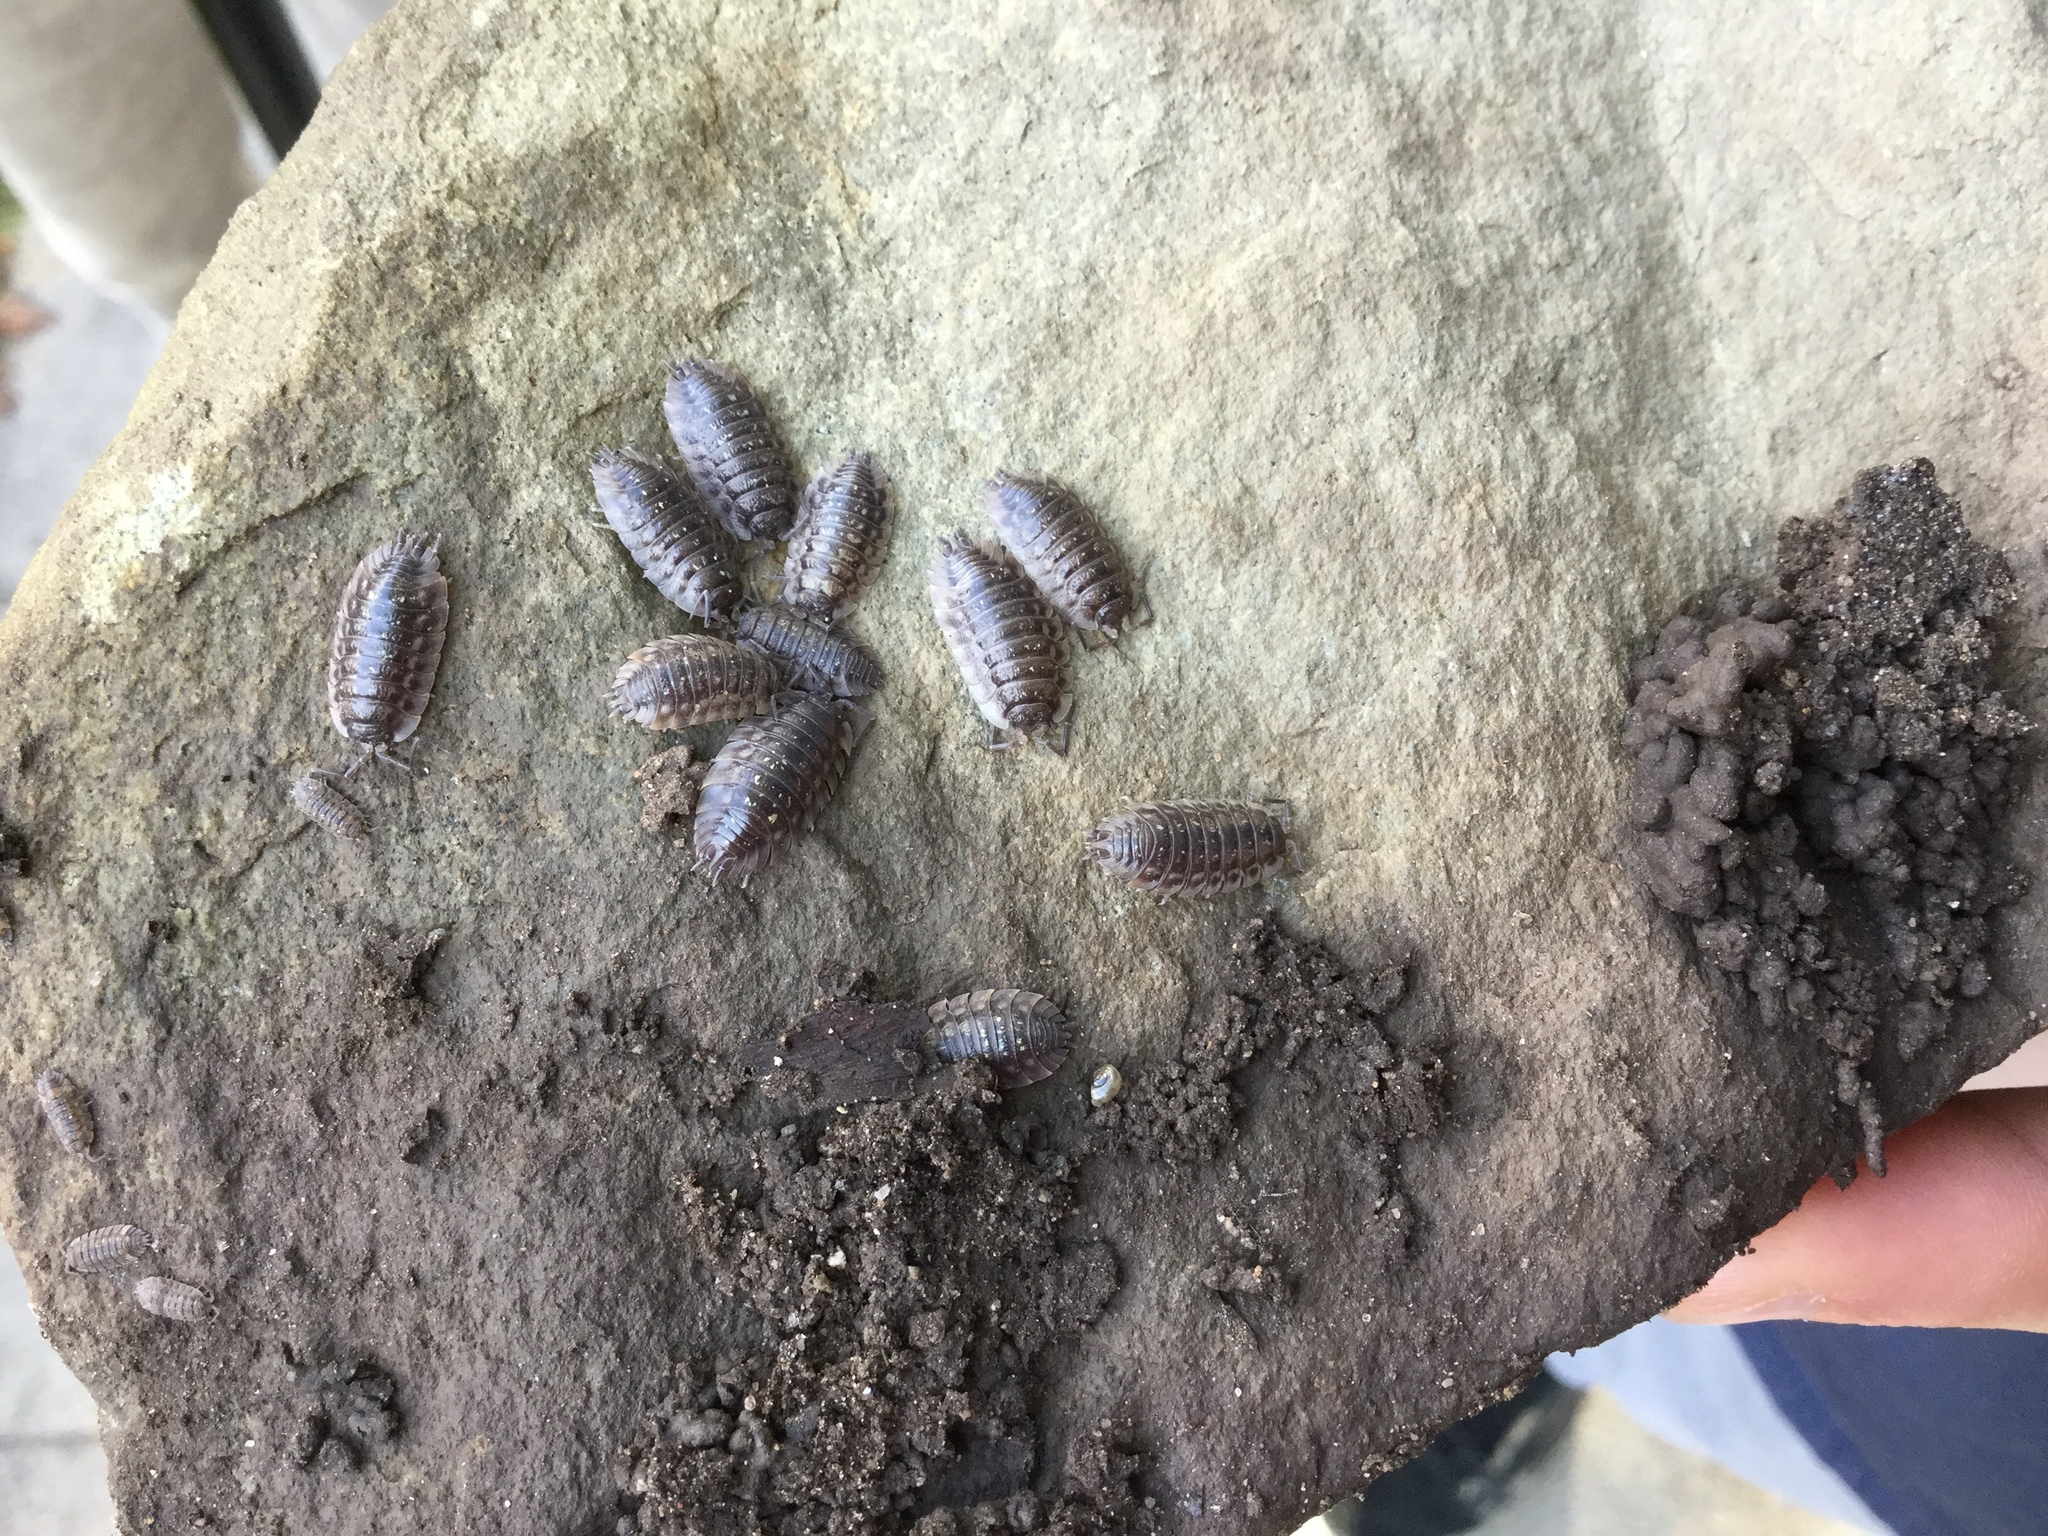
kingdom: Animalia
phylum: Arthropoda
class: Malacostraca
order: Isopoda
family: Oniscidae
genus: Oniscus
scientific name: Oniscus asellus
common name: Common shiny woodlouse
